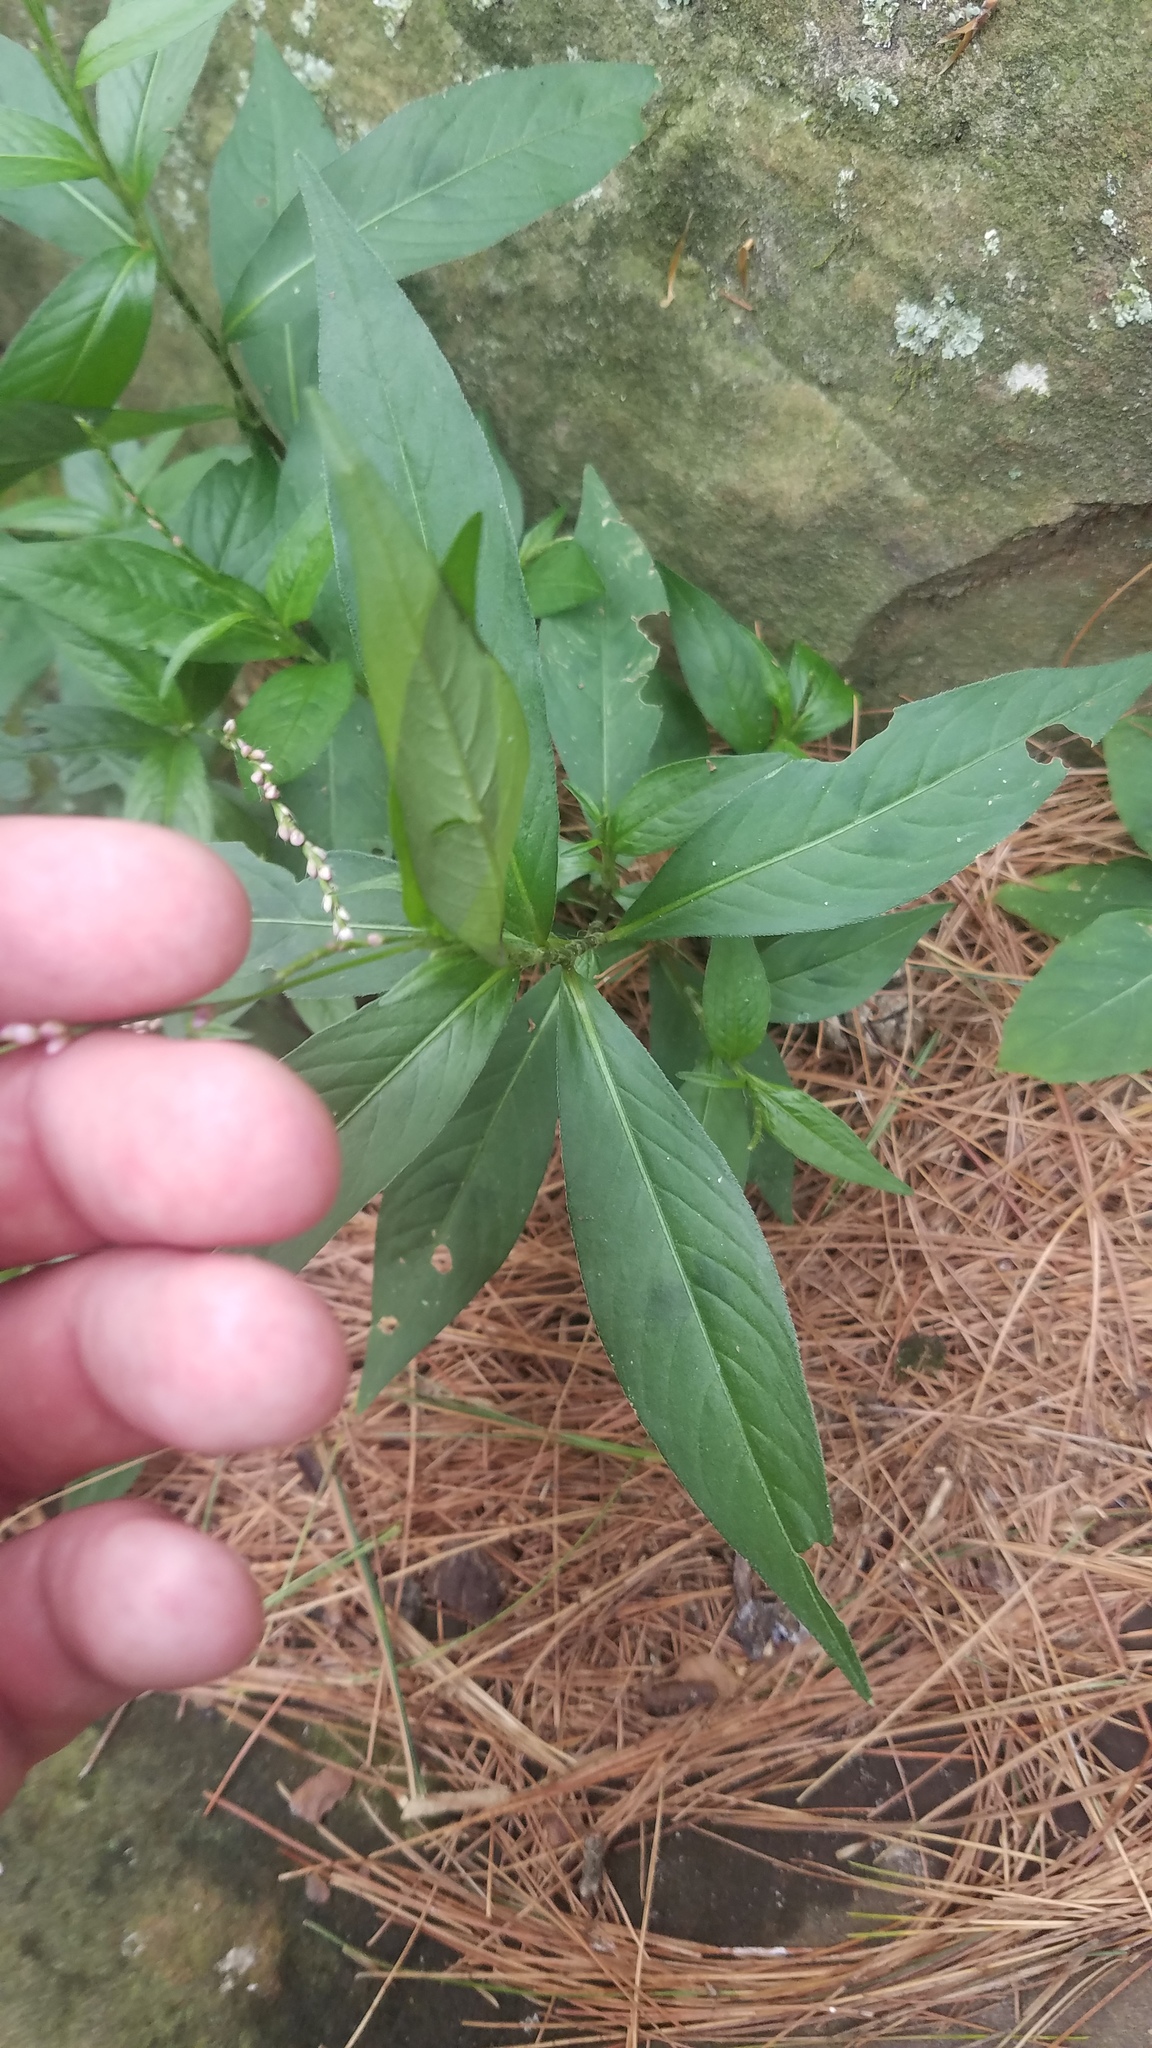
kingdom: Plantae
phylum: Tracheophyta
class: Magnoliopsida
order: Caryophyllales
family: Polygonaceae
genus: Persicaria
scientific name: Persicaria virginiana
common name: Jumpseed
